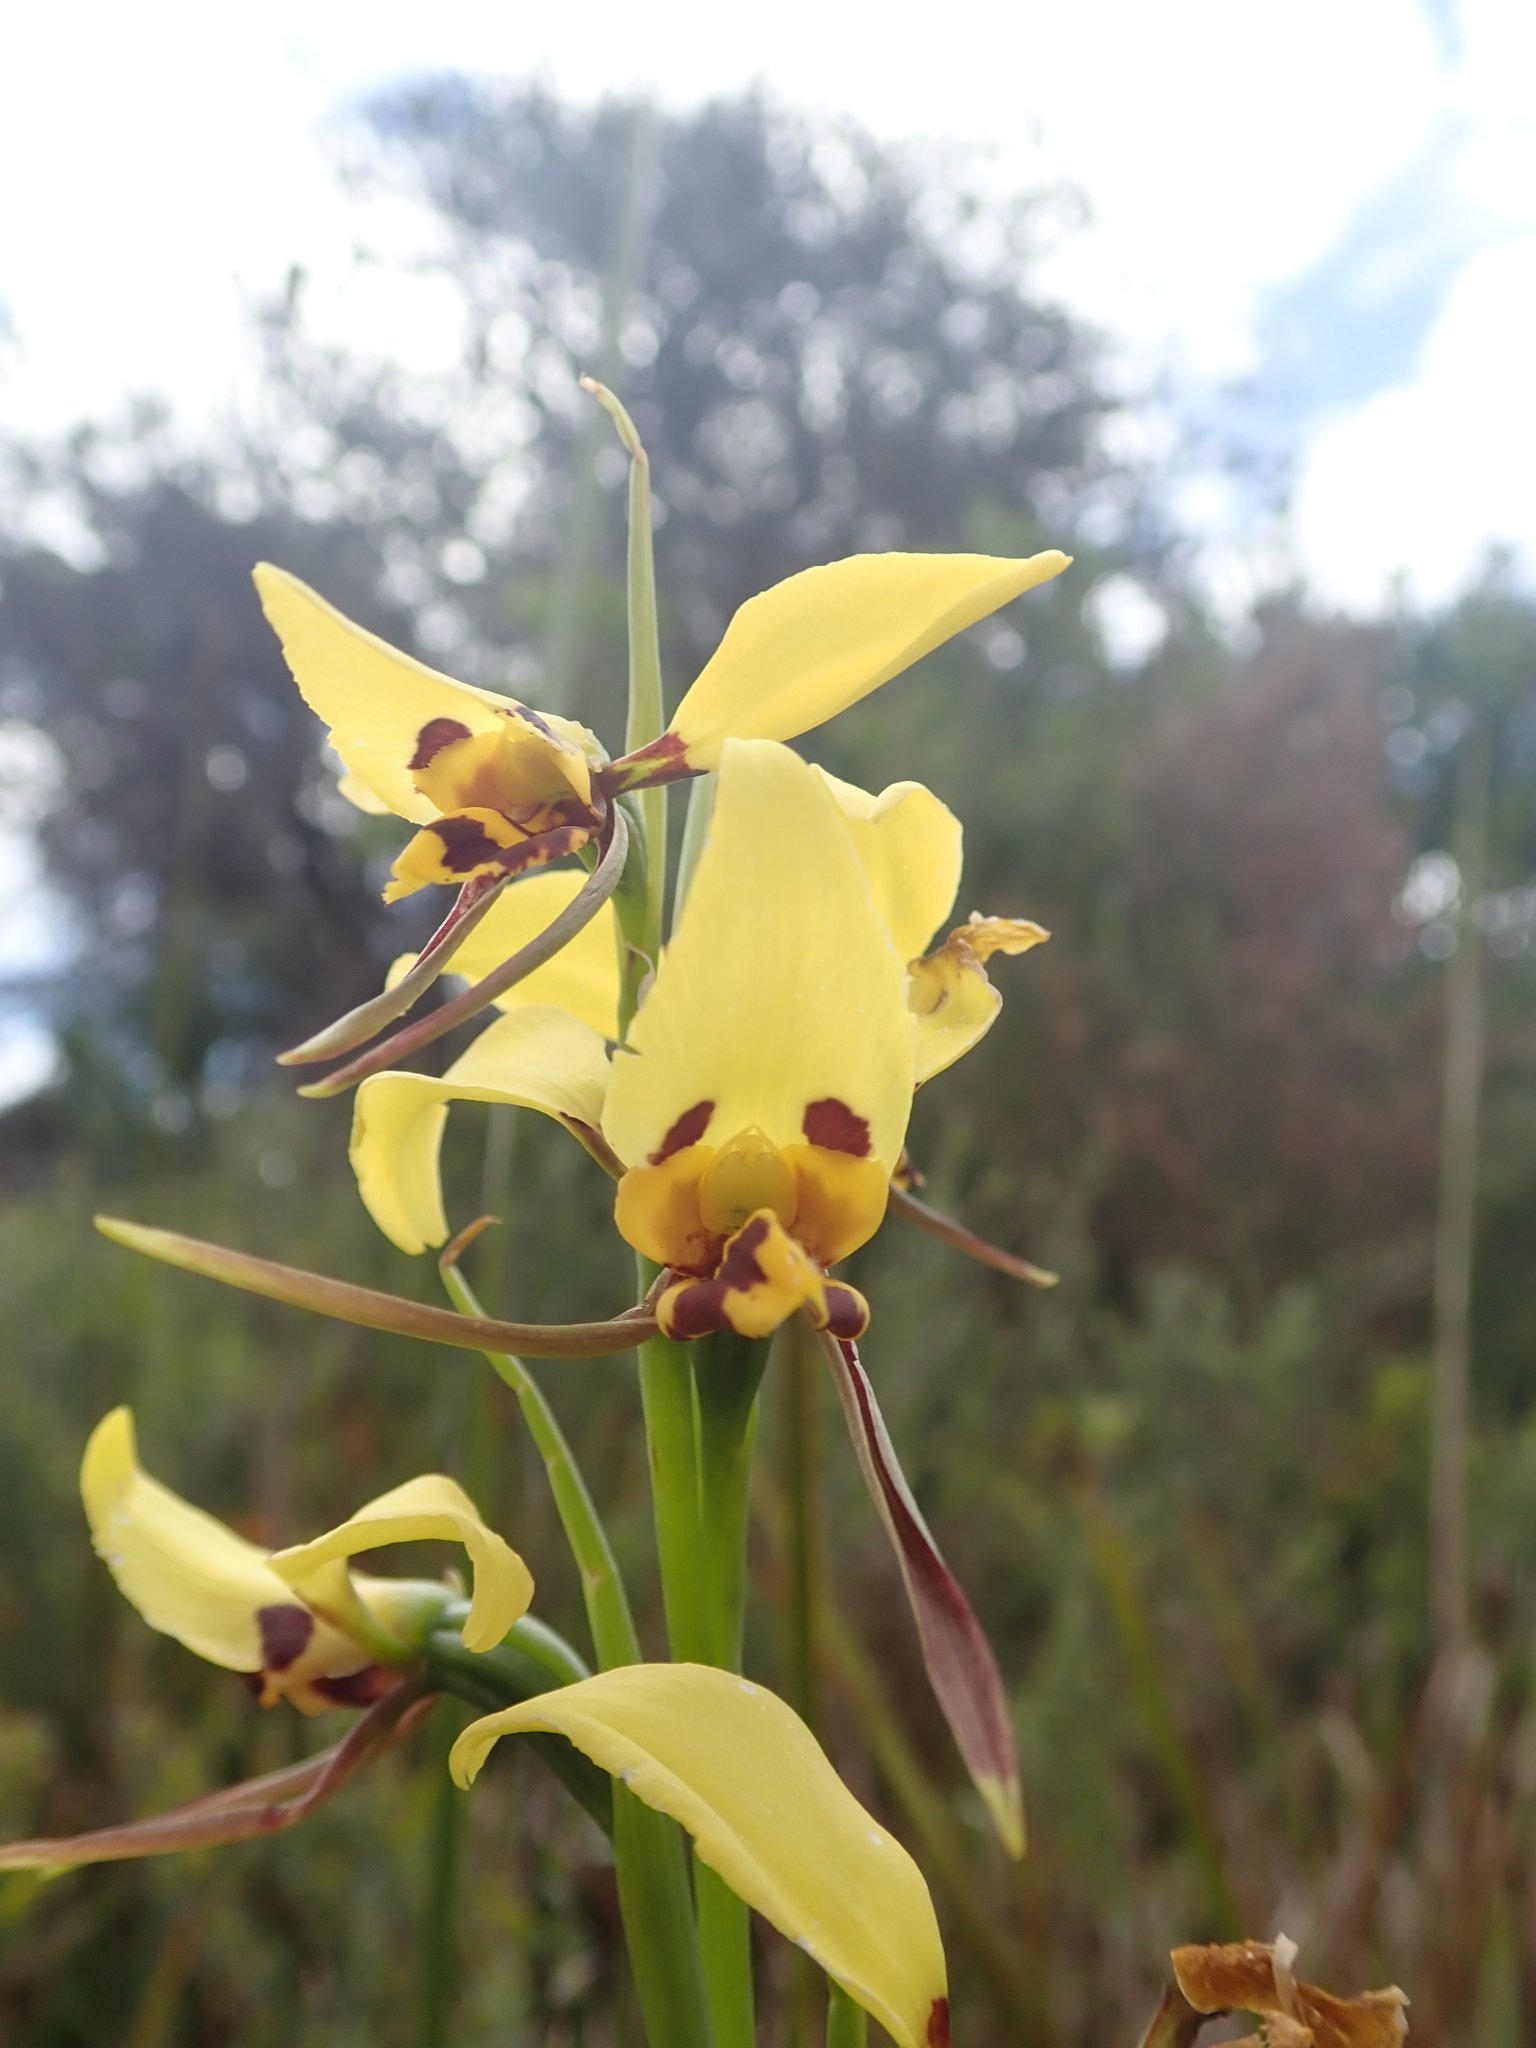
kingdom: Plantae
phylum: Tracheophyta
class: Liliopsida
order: Asparagales
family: Orchidaceae
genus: Diuris
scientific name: Diuris sulphurea
